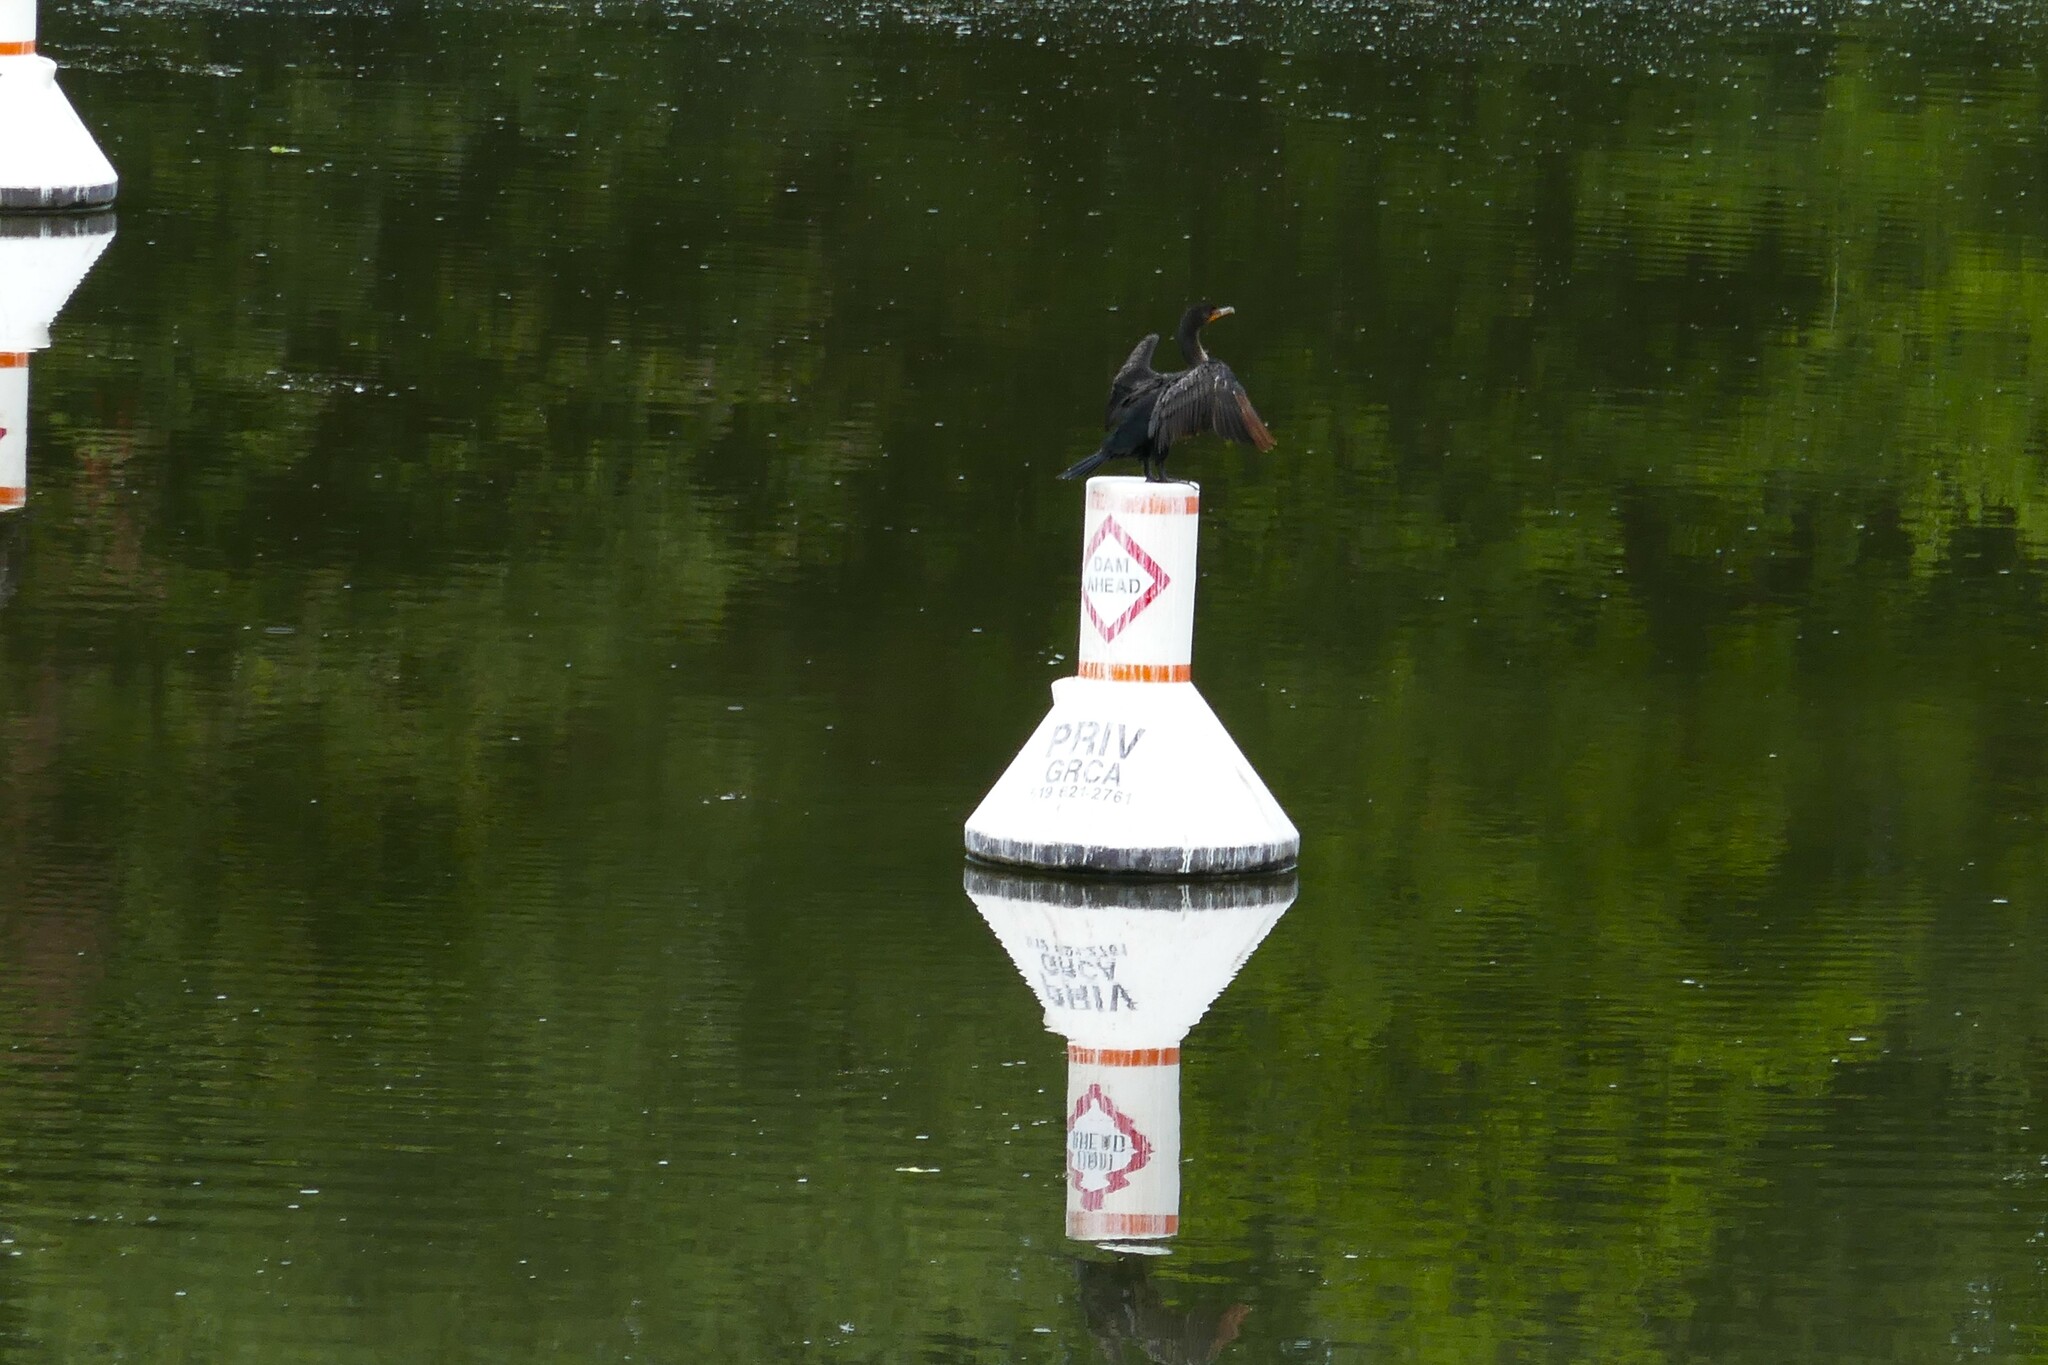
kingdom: Animalia
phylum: Chordata
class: Aves
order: Suliformes
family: Phalacrocoracidae
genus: Phalacrocorax
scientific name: Phalacrocorax auritus
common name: Double-crested cormorant
